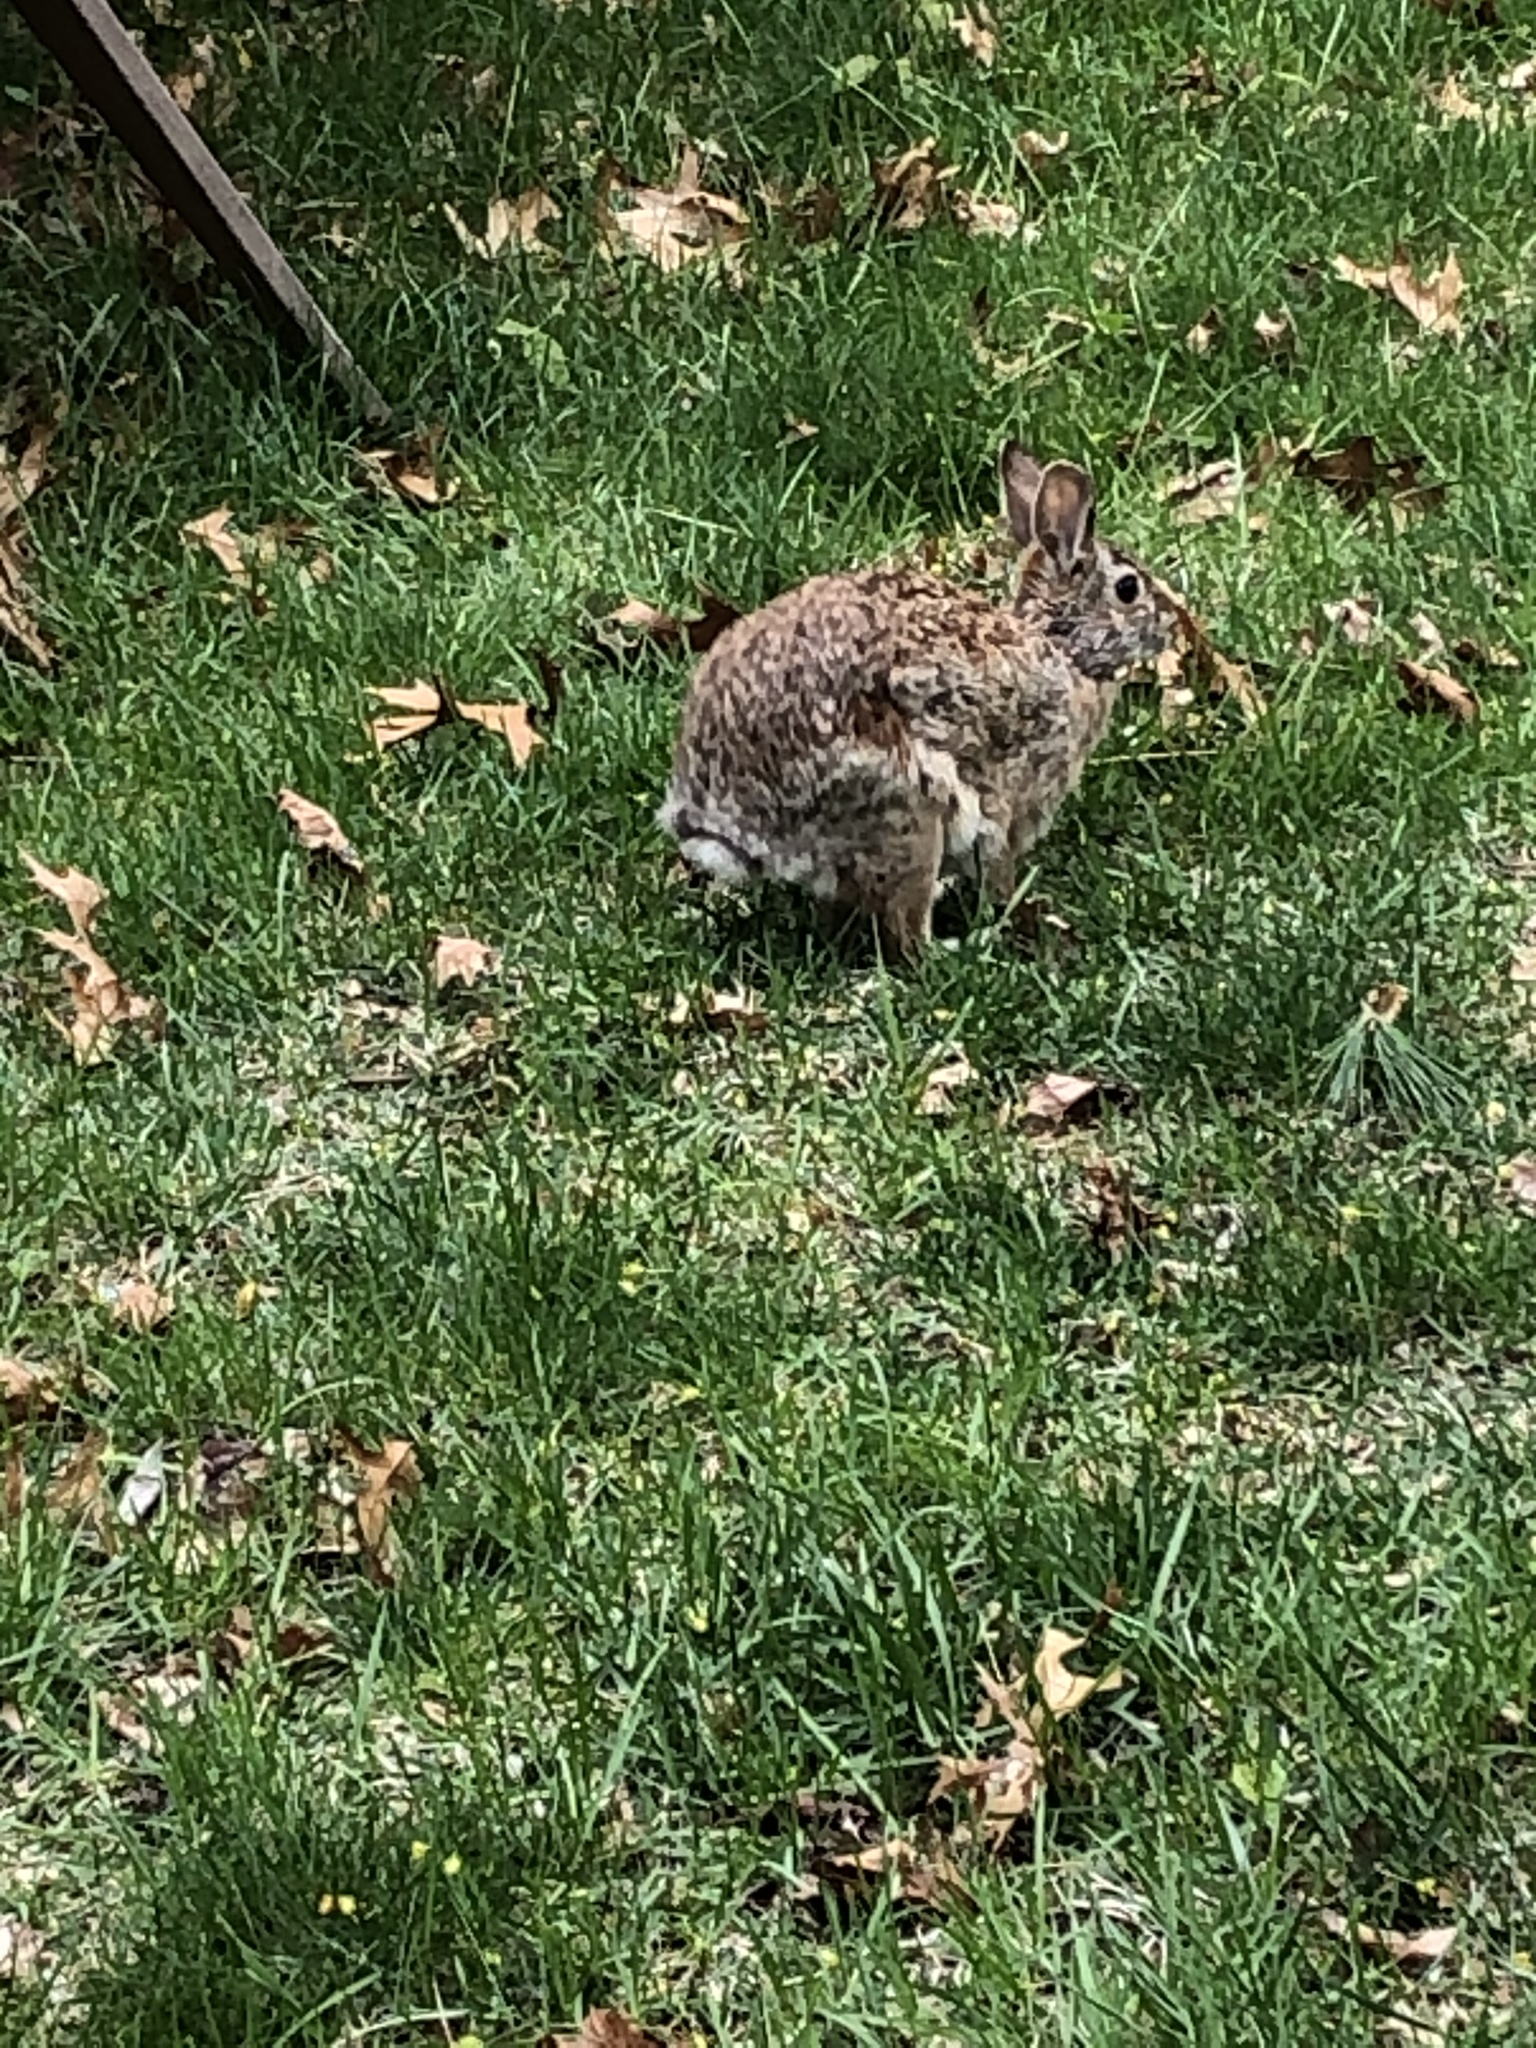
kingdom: Animalia
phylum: Chordata
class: Mammalia
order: Lagomorpha
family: Leporidae
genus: Sylvilagus
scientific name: Sylvilagus floridanus
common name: Eastern cottontail
